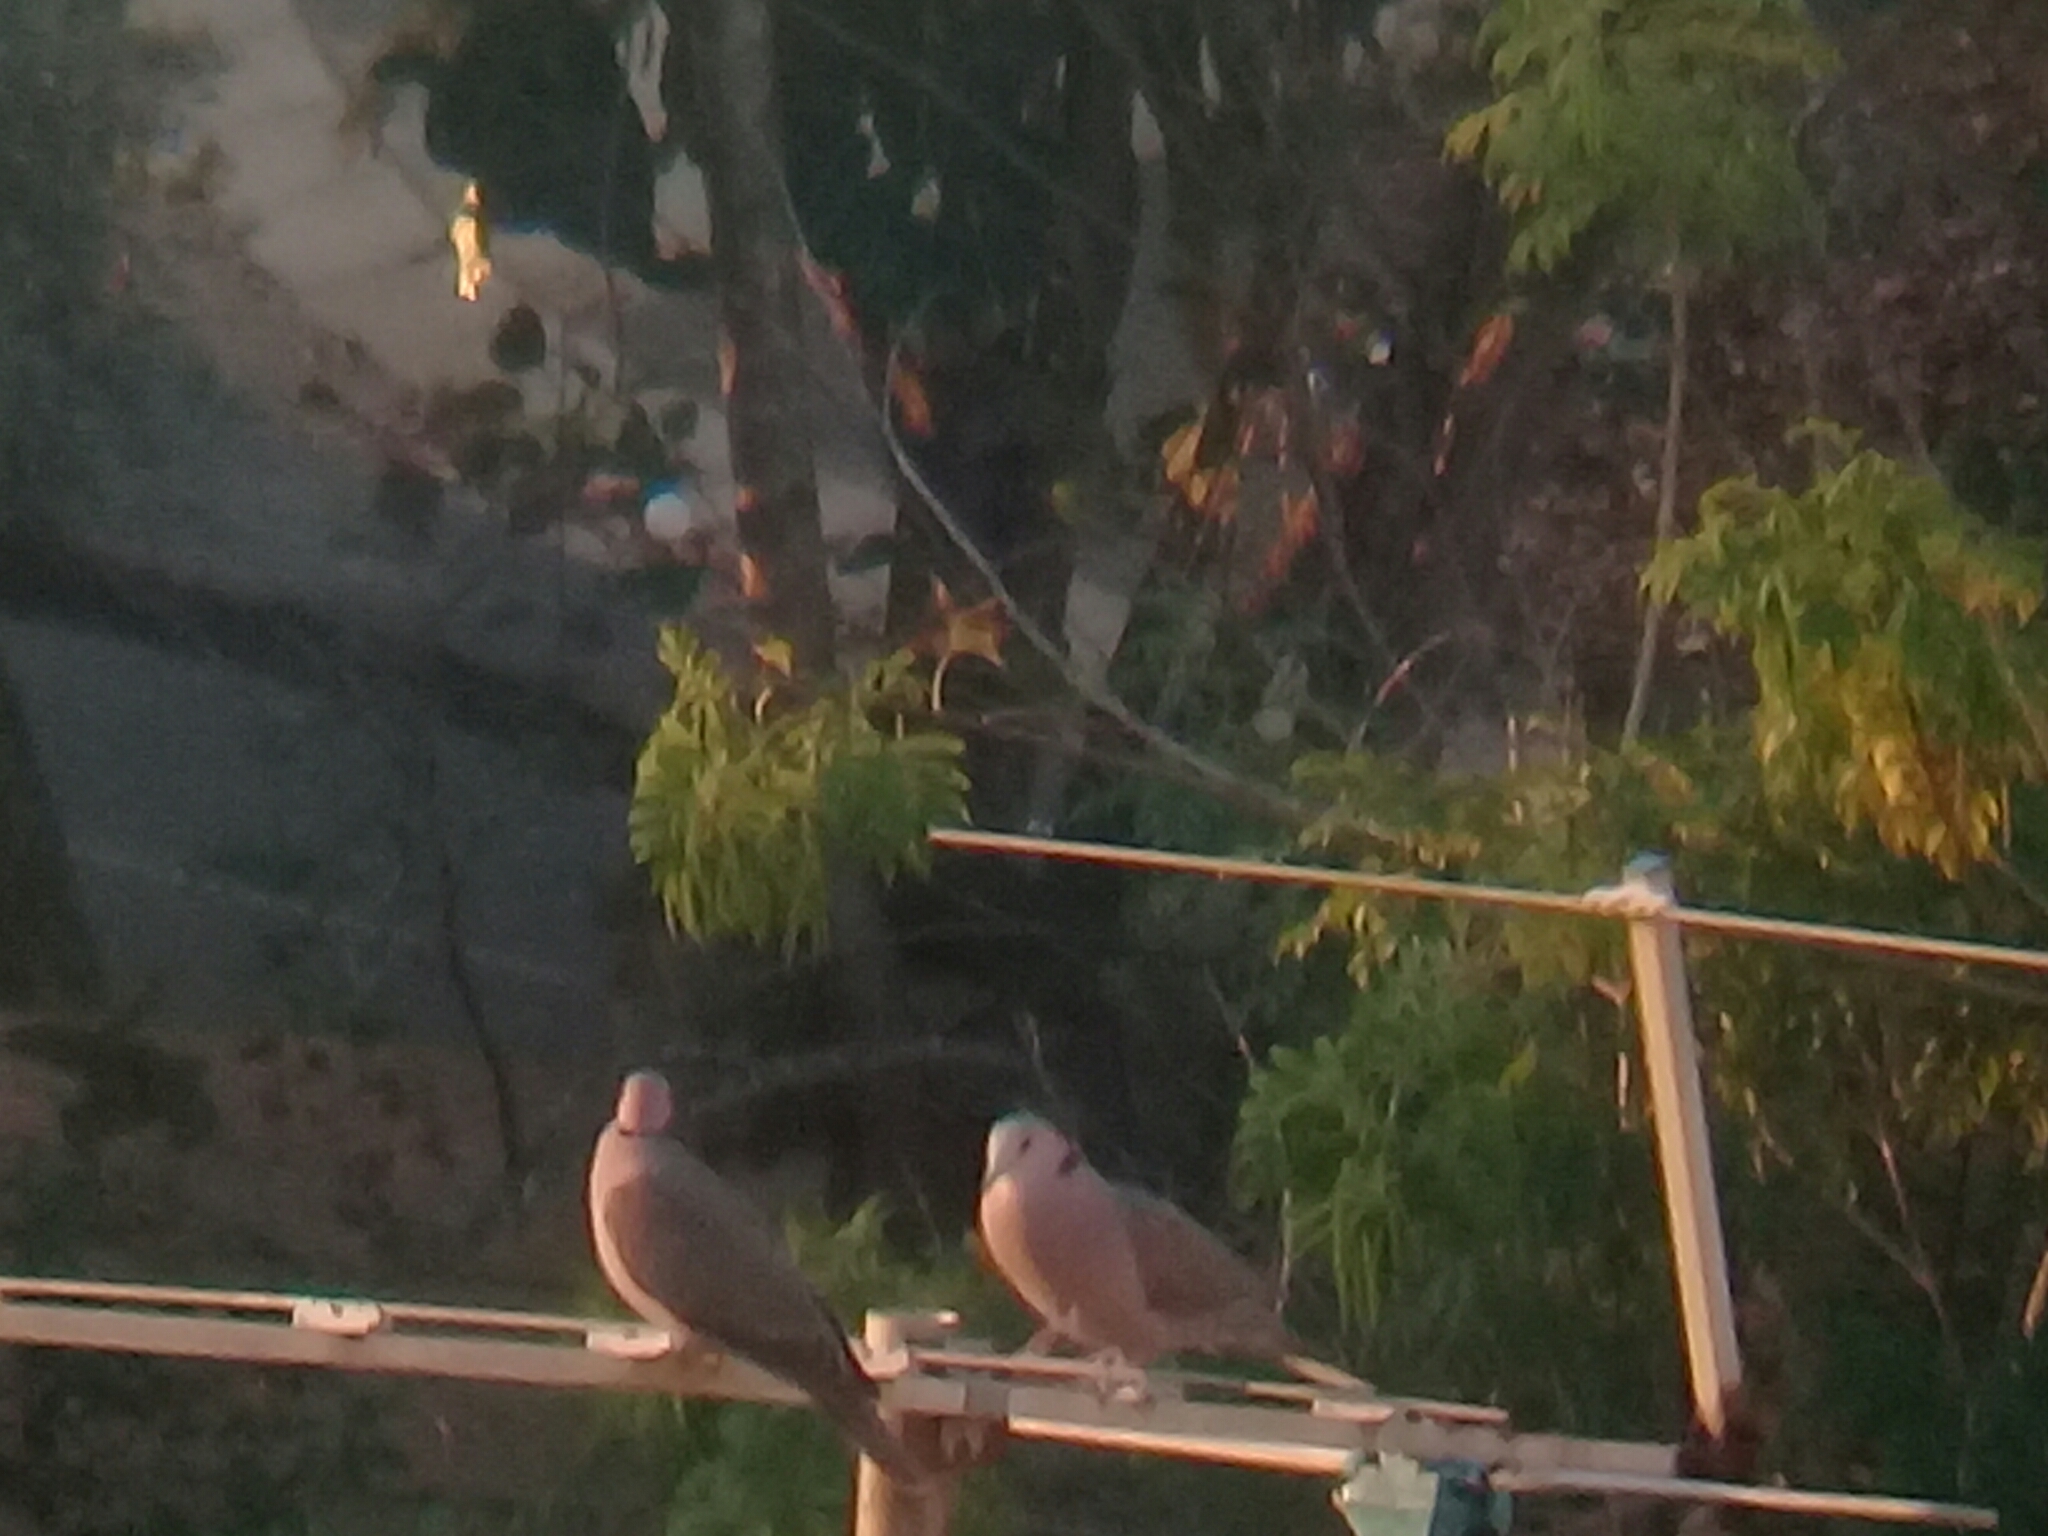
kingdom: Animalia
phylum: Chordata
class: Aves
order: Columbiformes
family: Columbidae
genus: Streptopelia
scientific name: Streptopelia semitorquata
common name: Red-eyed dove
